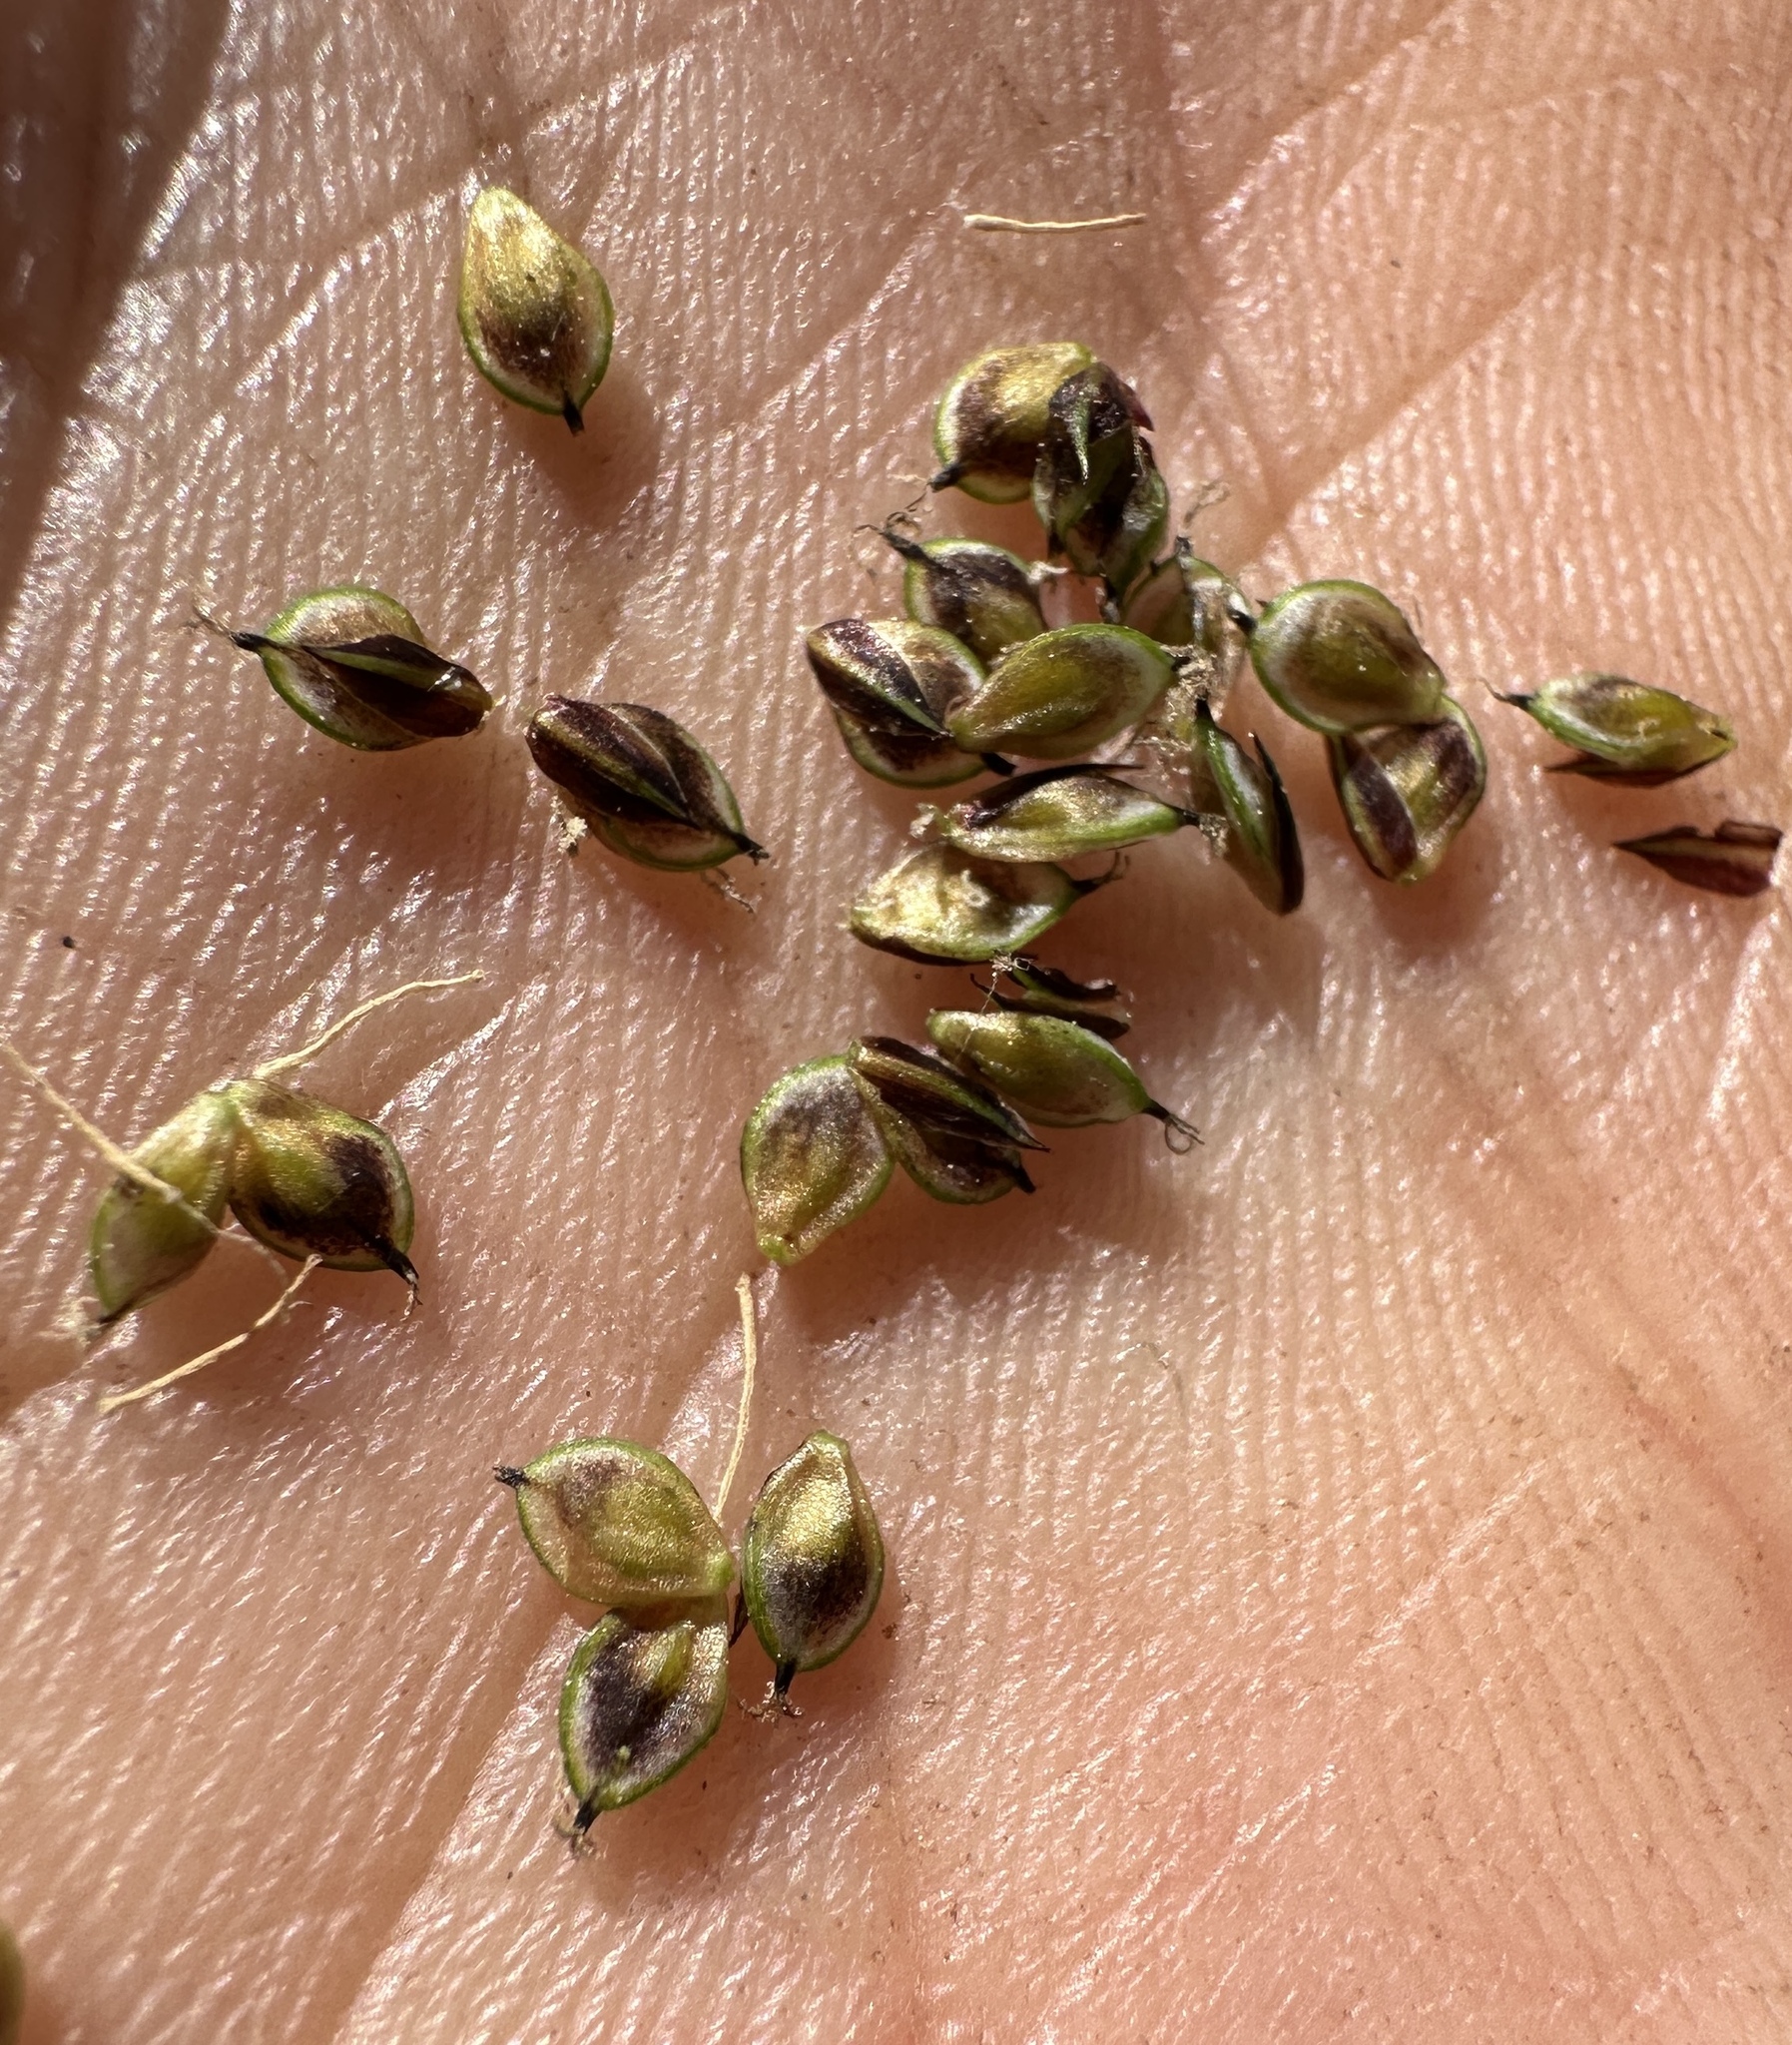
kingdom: Plantae
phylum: Tracheophyta
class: Liliopsida
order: Poales
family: Cyperaceae
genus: Carex
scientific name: Carex heteroneura
